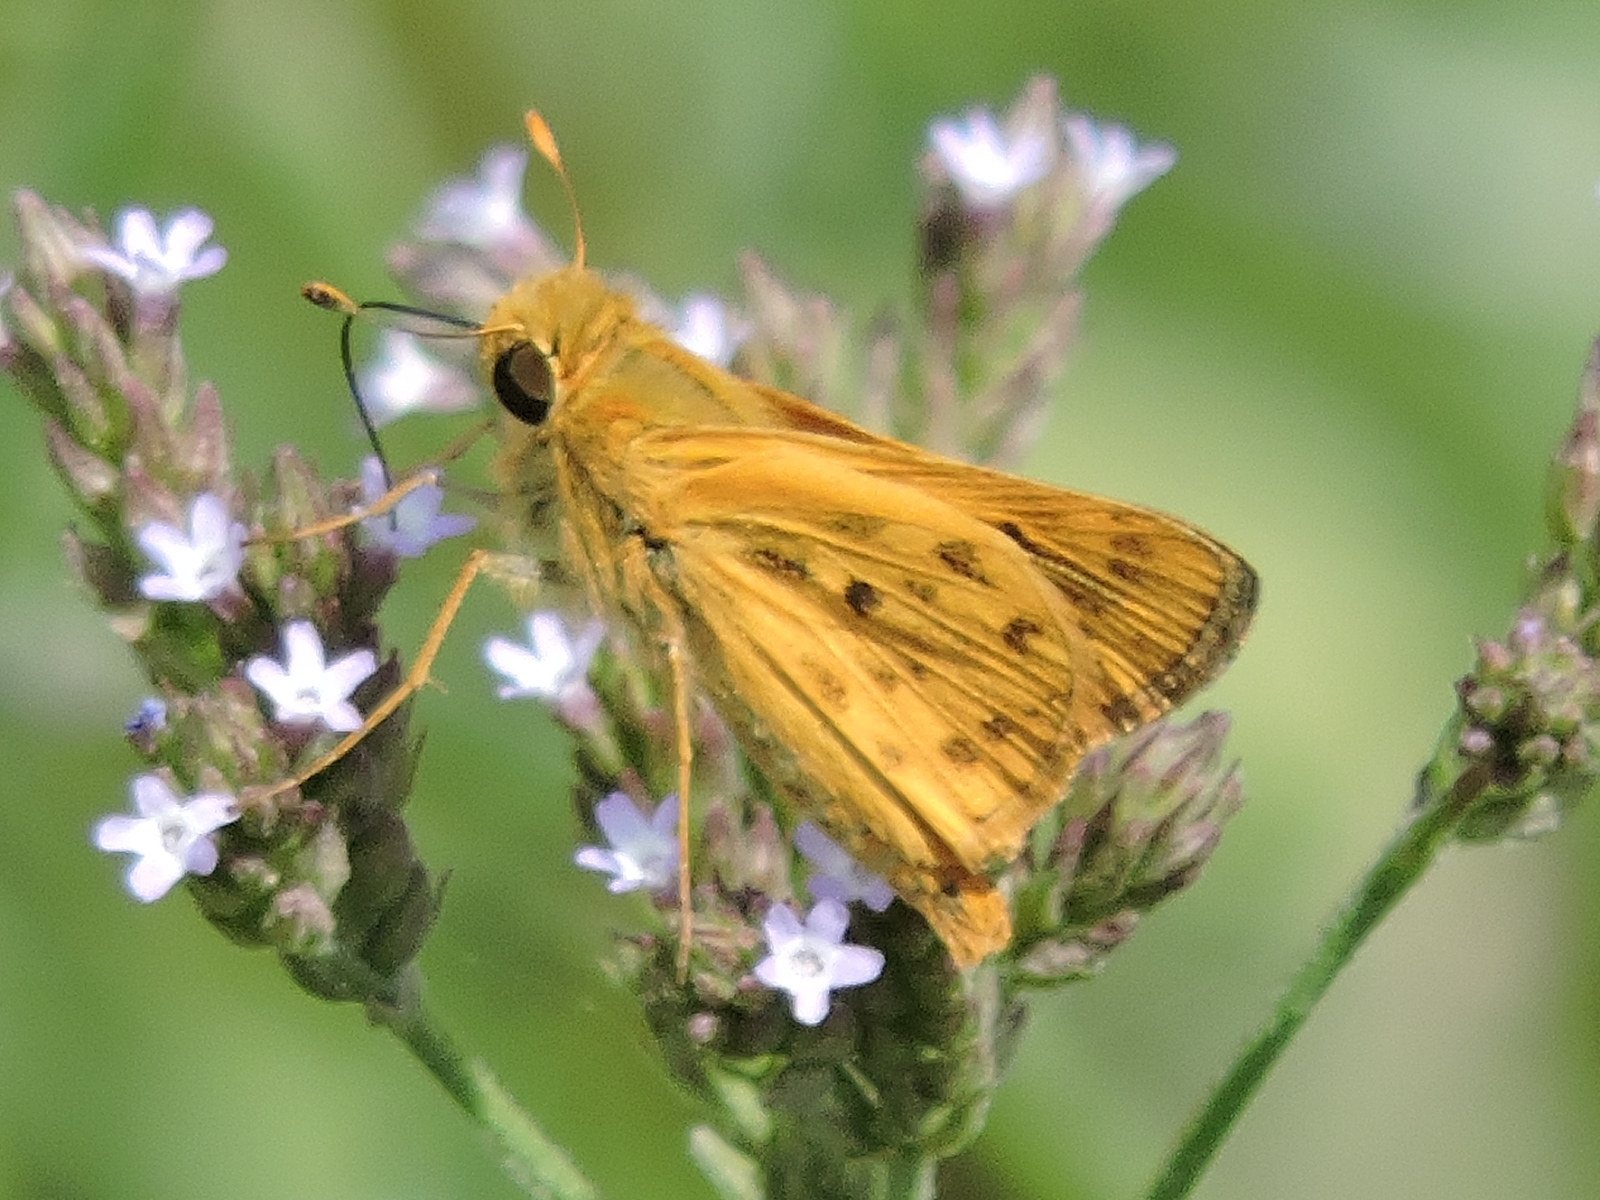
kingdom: Animalia
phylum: Arthropoda
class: Insecta
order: Lepidoptera
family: Hesperiidae
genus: Hylephila
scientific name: Hylephila phyleus
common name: Fiery skipper
